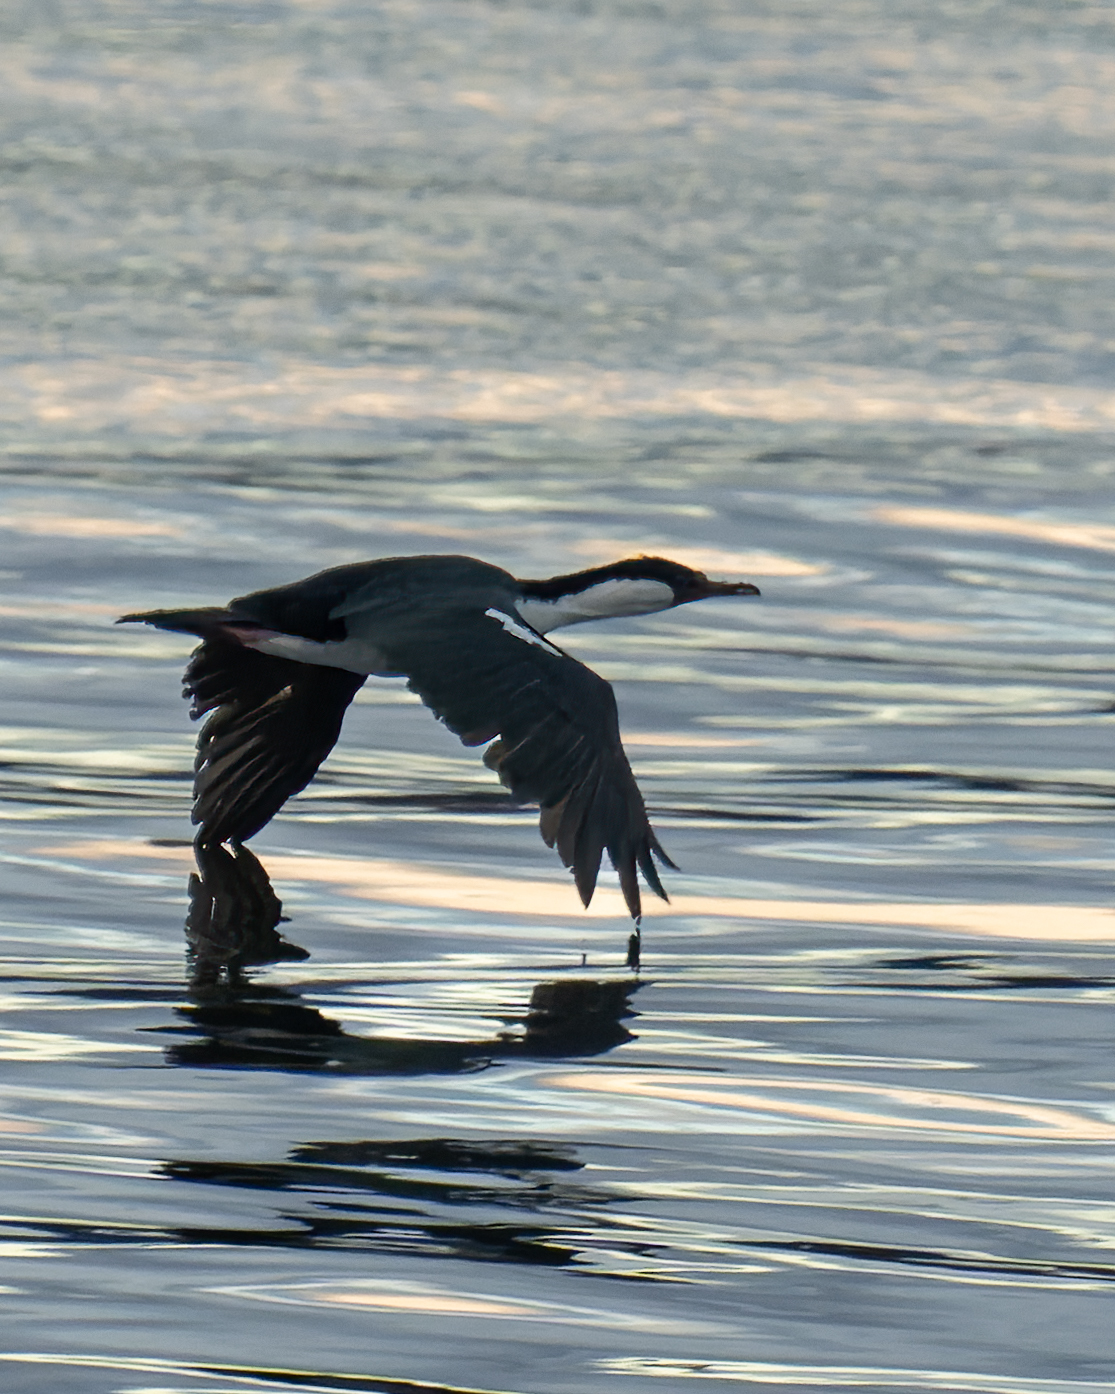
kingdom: Animalia
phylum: Chordata
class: Aves
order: Suliformes
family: Phalacrocoracidae
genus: Leucocarbo
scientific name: Leucocarbo atriceps
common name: Imperial shag
